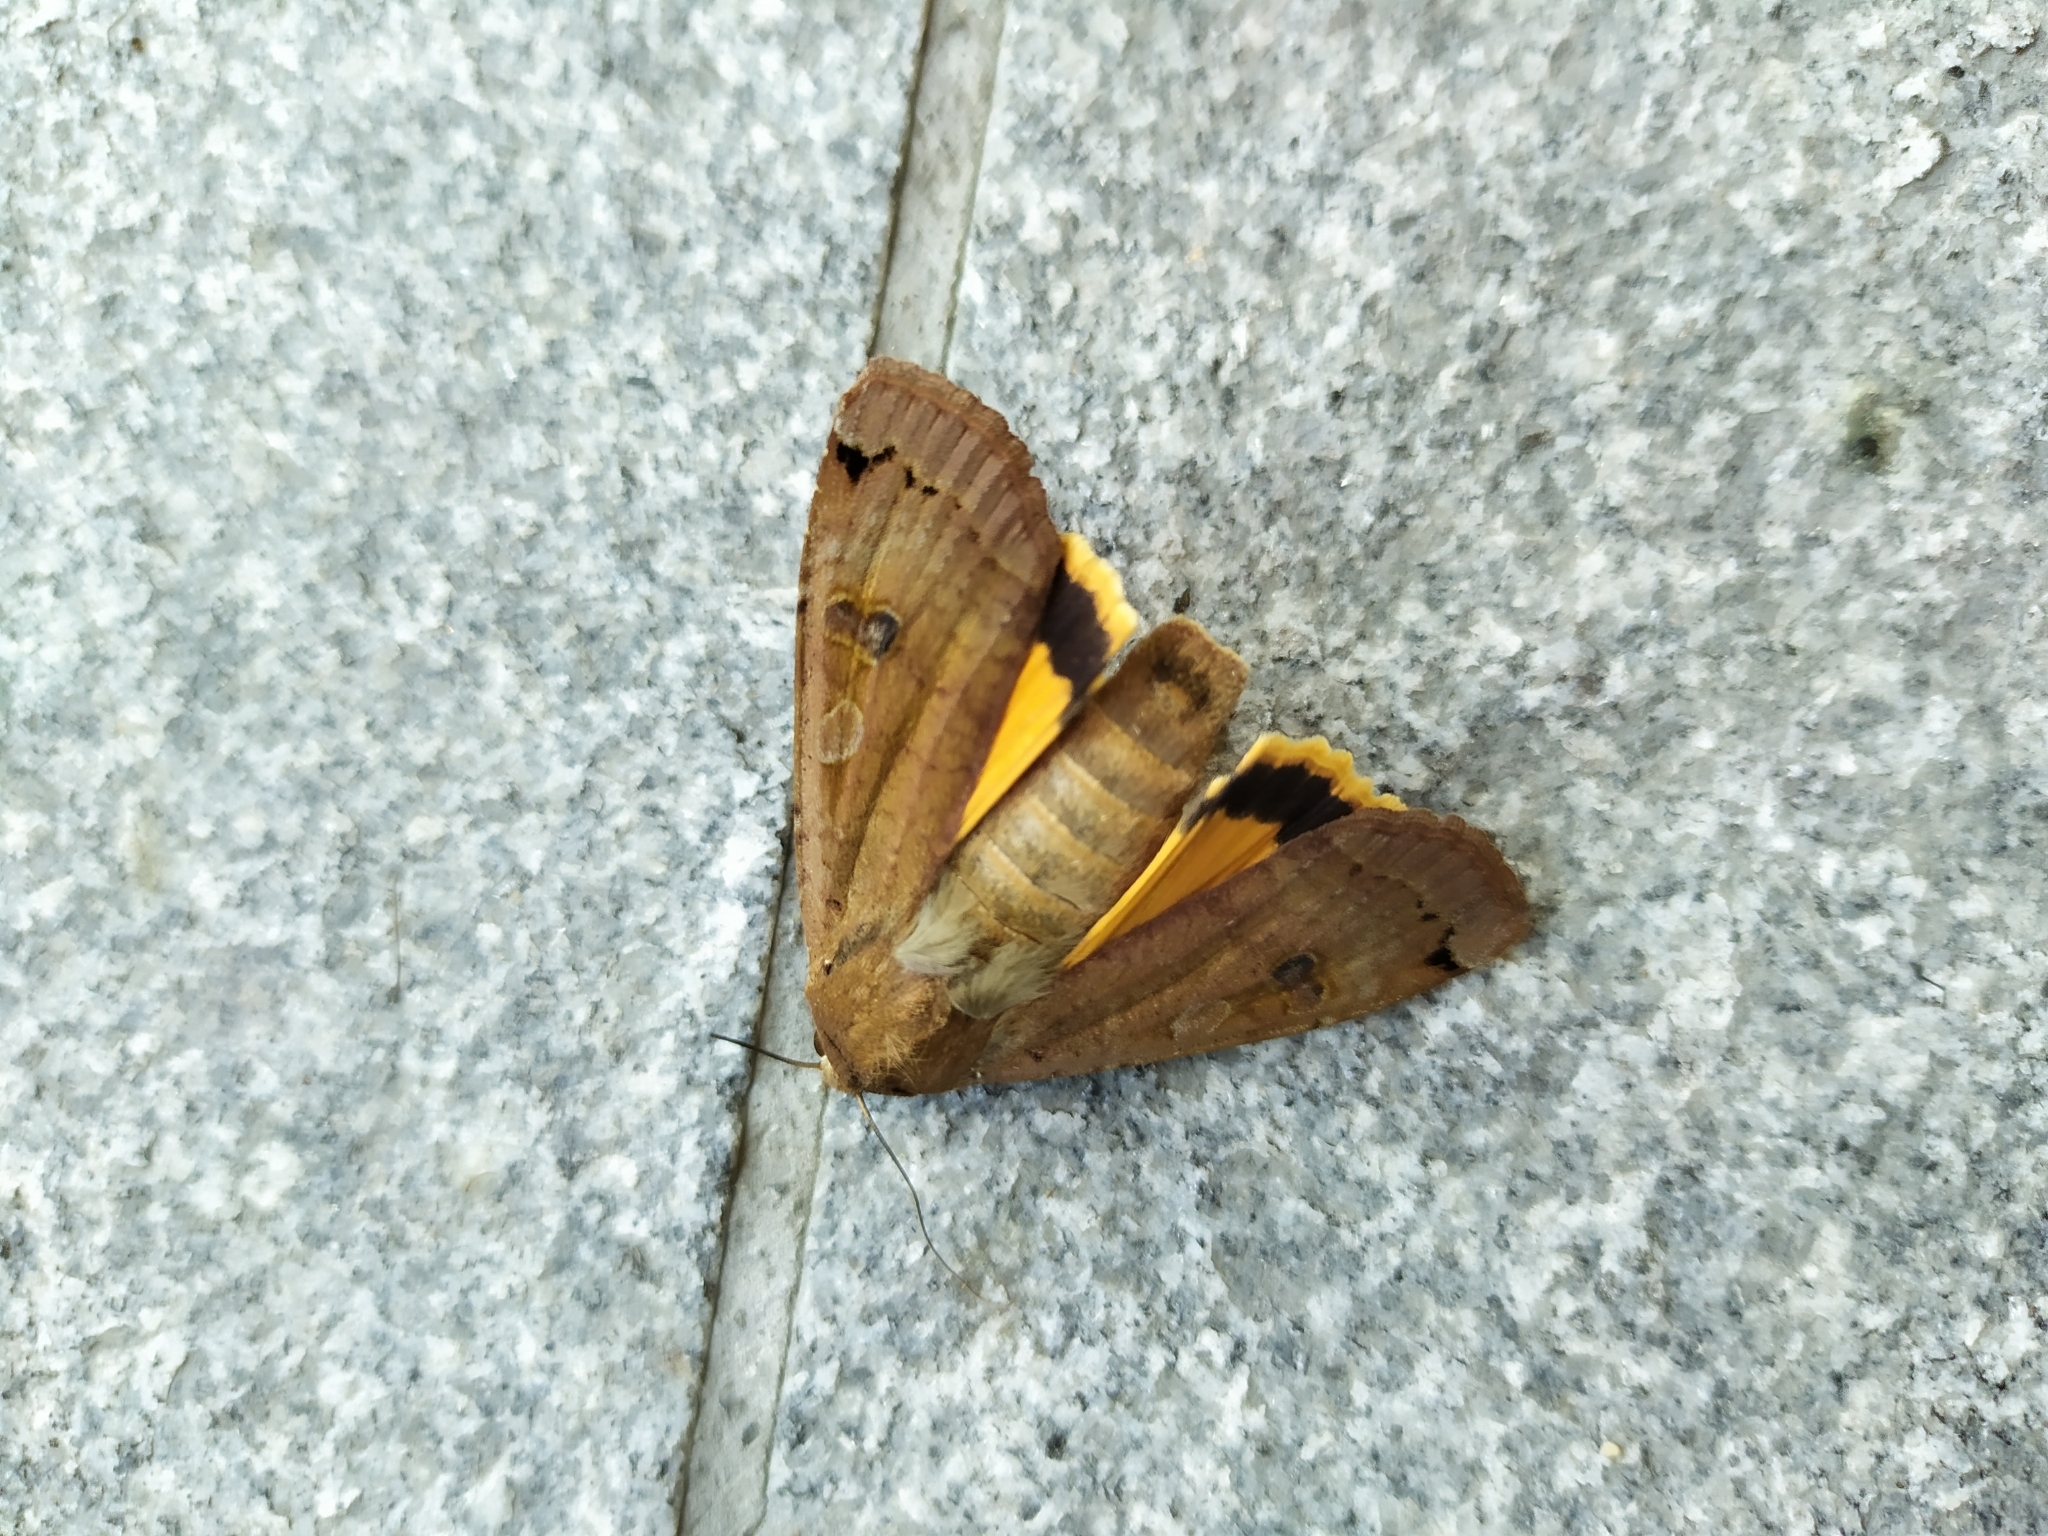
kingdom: Animalia
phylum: Arthropoda
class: Insecta
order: Lepidoptera
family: Noctuidae
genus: Noctua
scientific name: Noctua pronuba
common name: Large yellow underwing
